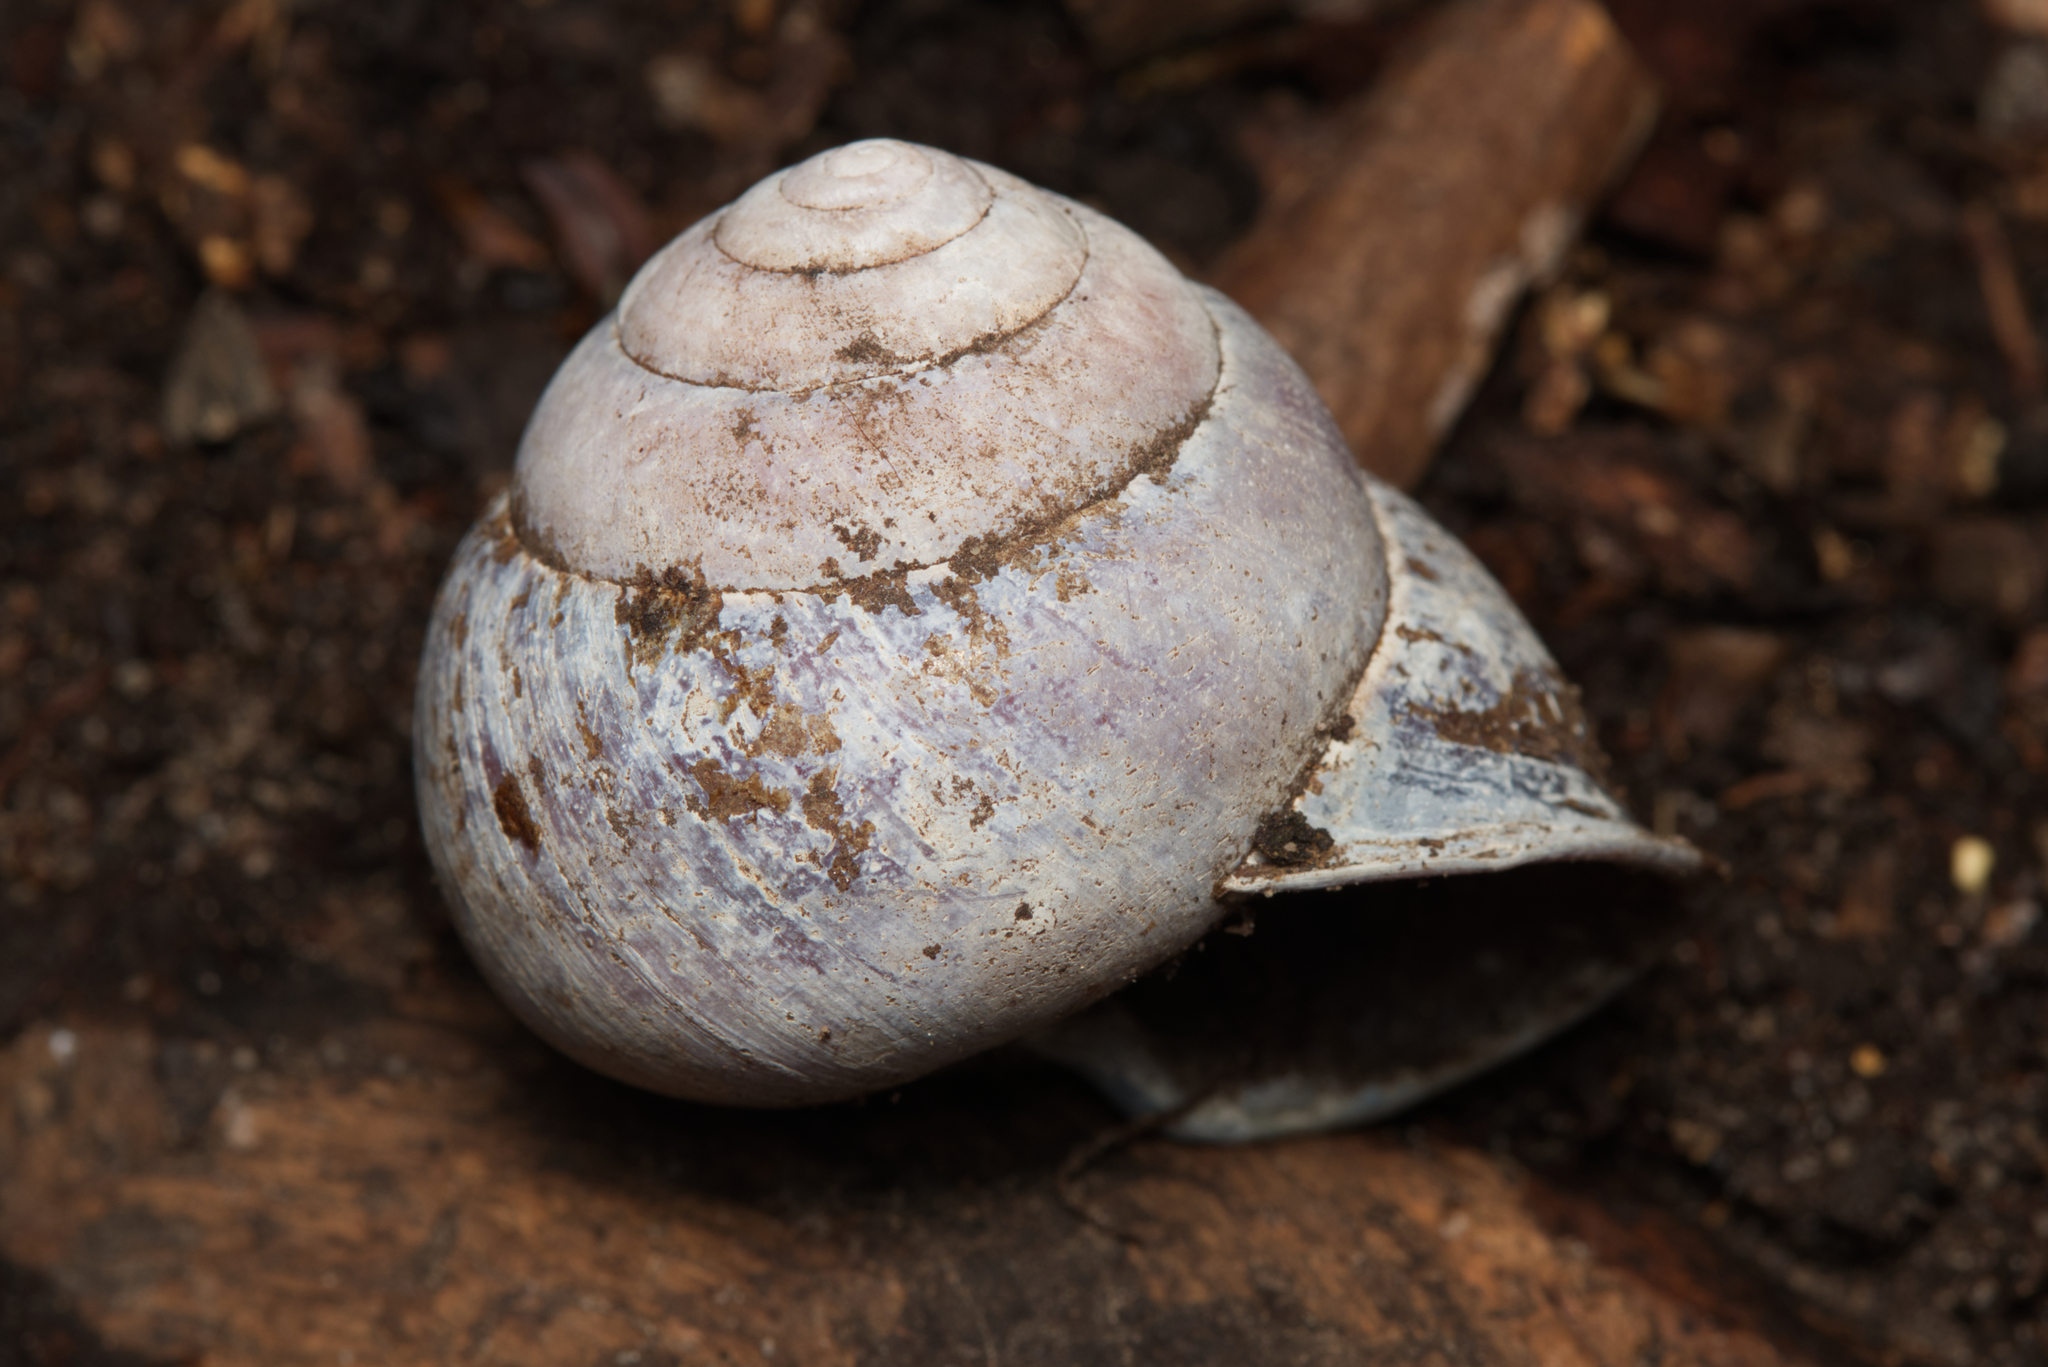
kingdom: Animalia
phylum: Mollusca
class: Gastropoda
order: Stylommatophora
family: Camaenidae
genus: Sphaerospira
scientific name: Sphaerospira sidneyi
